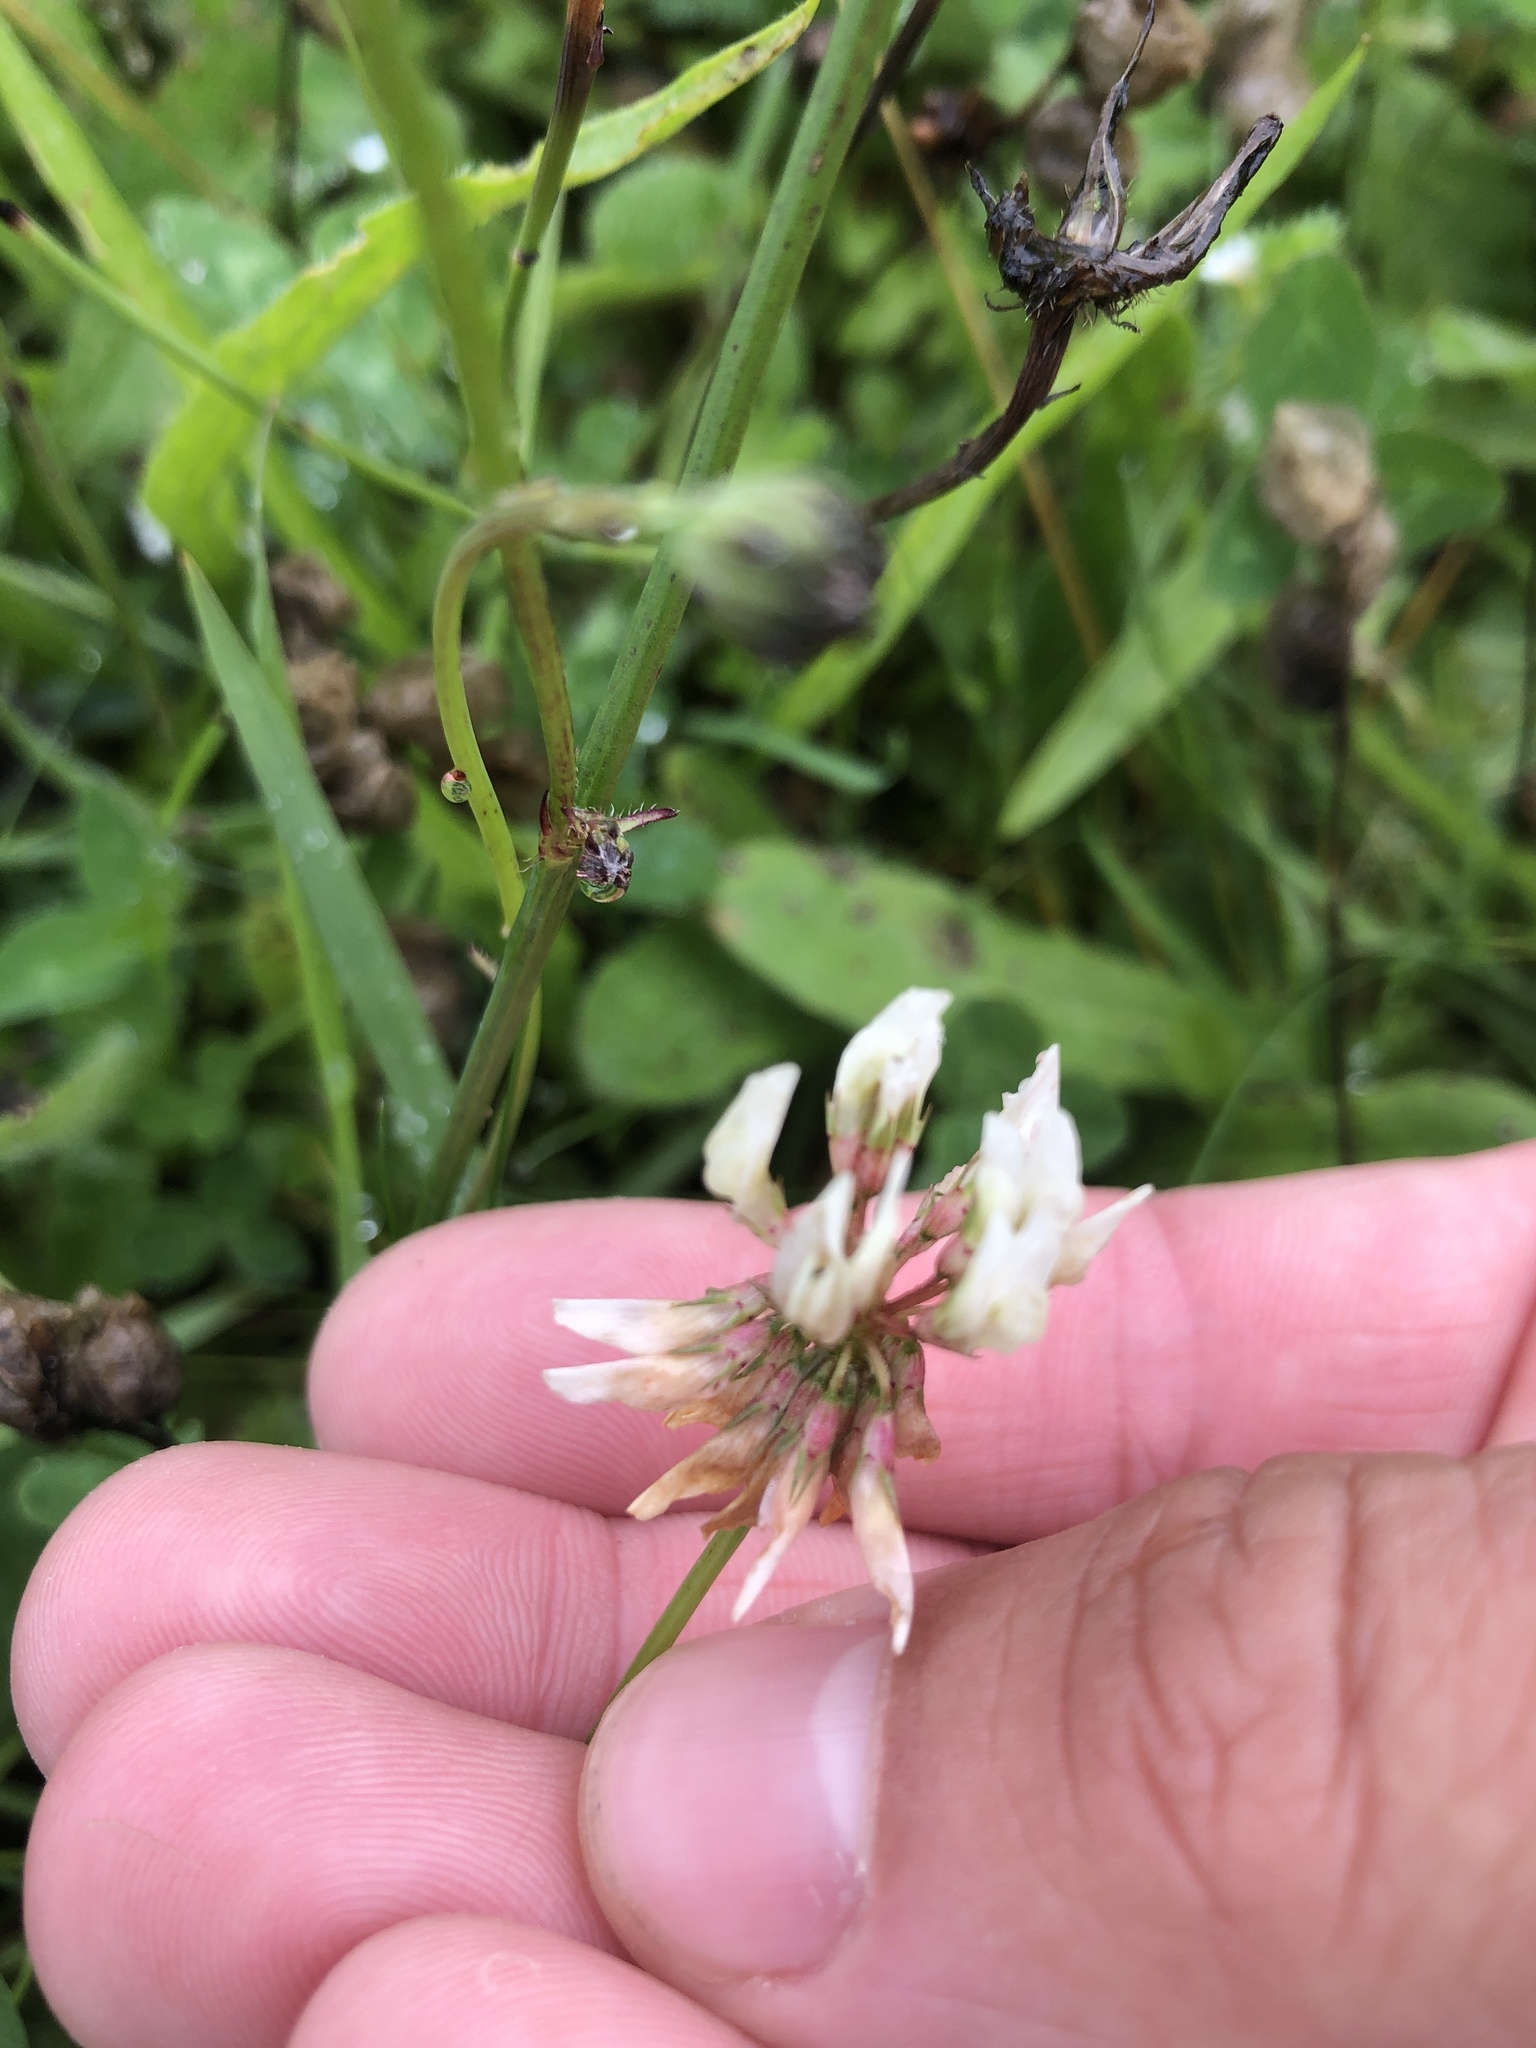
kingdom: Plantae
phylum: Tracheophyta
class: Magnoliopsida
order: Fabales
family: Fabaceae
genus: Trifolium
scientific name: Trifolium repens
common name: White clover
